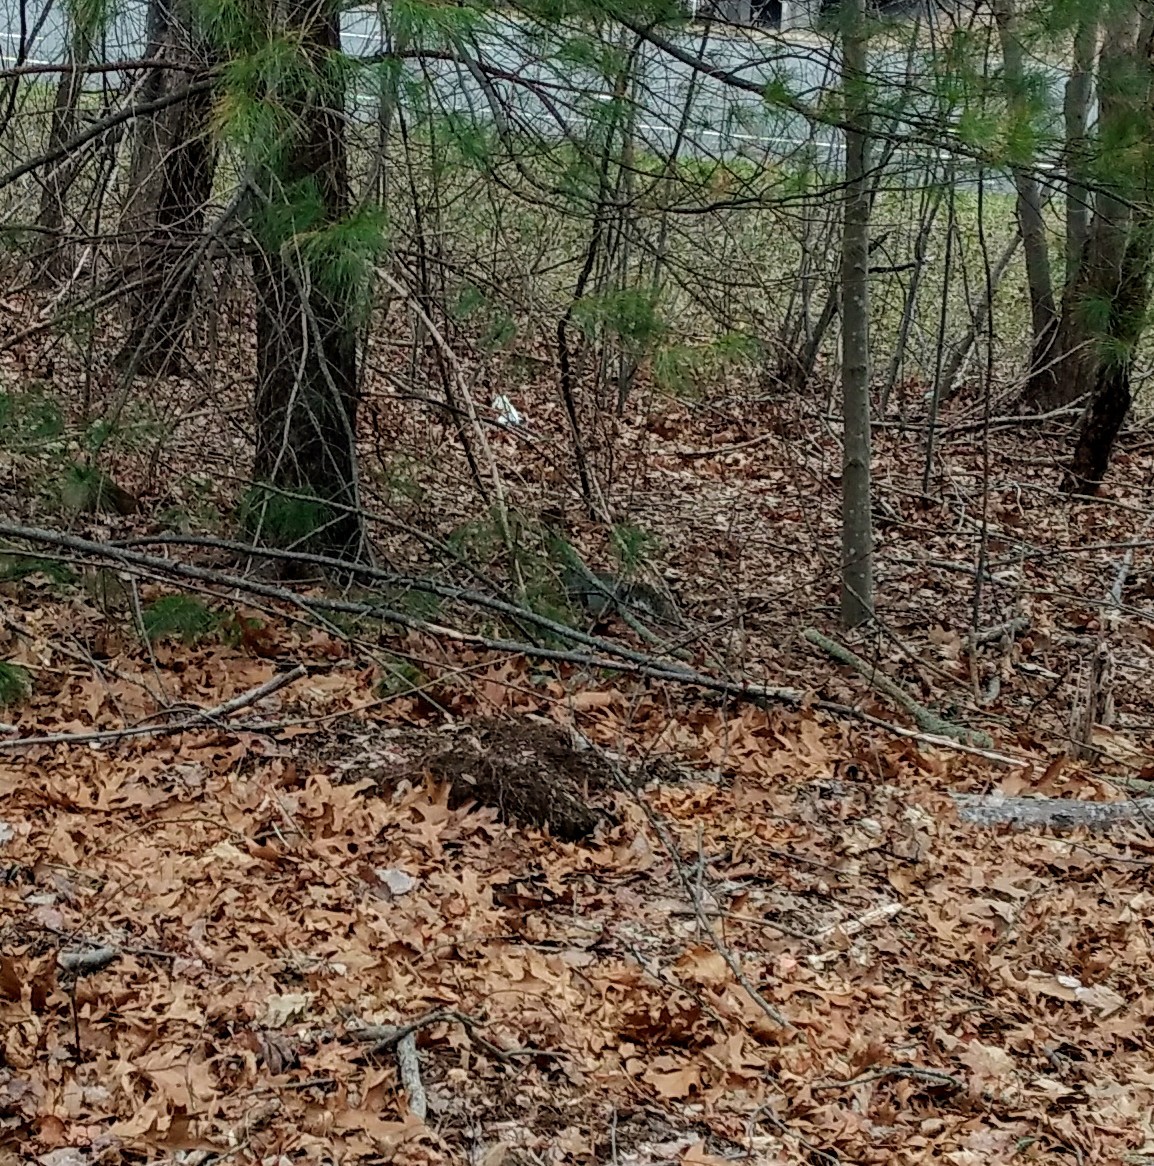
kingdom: Animalia
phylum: Chordata
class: Mammalia
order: Rodentia
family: Sciuridae
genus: Sciurus
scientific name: Sciurus carolinensis
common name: Eastern gray squirrel
